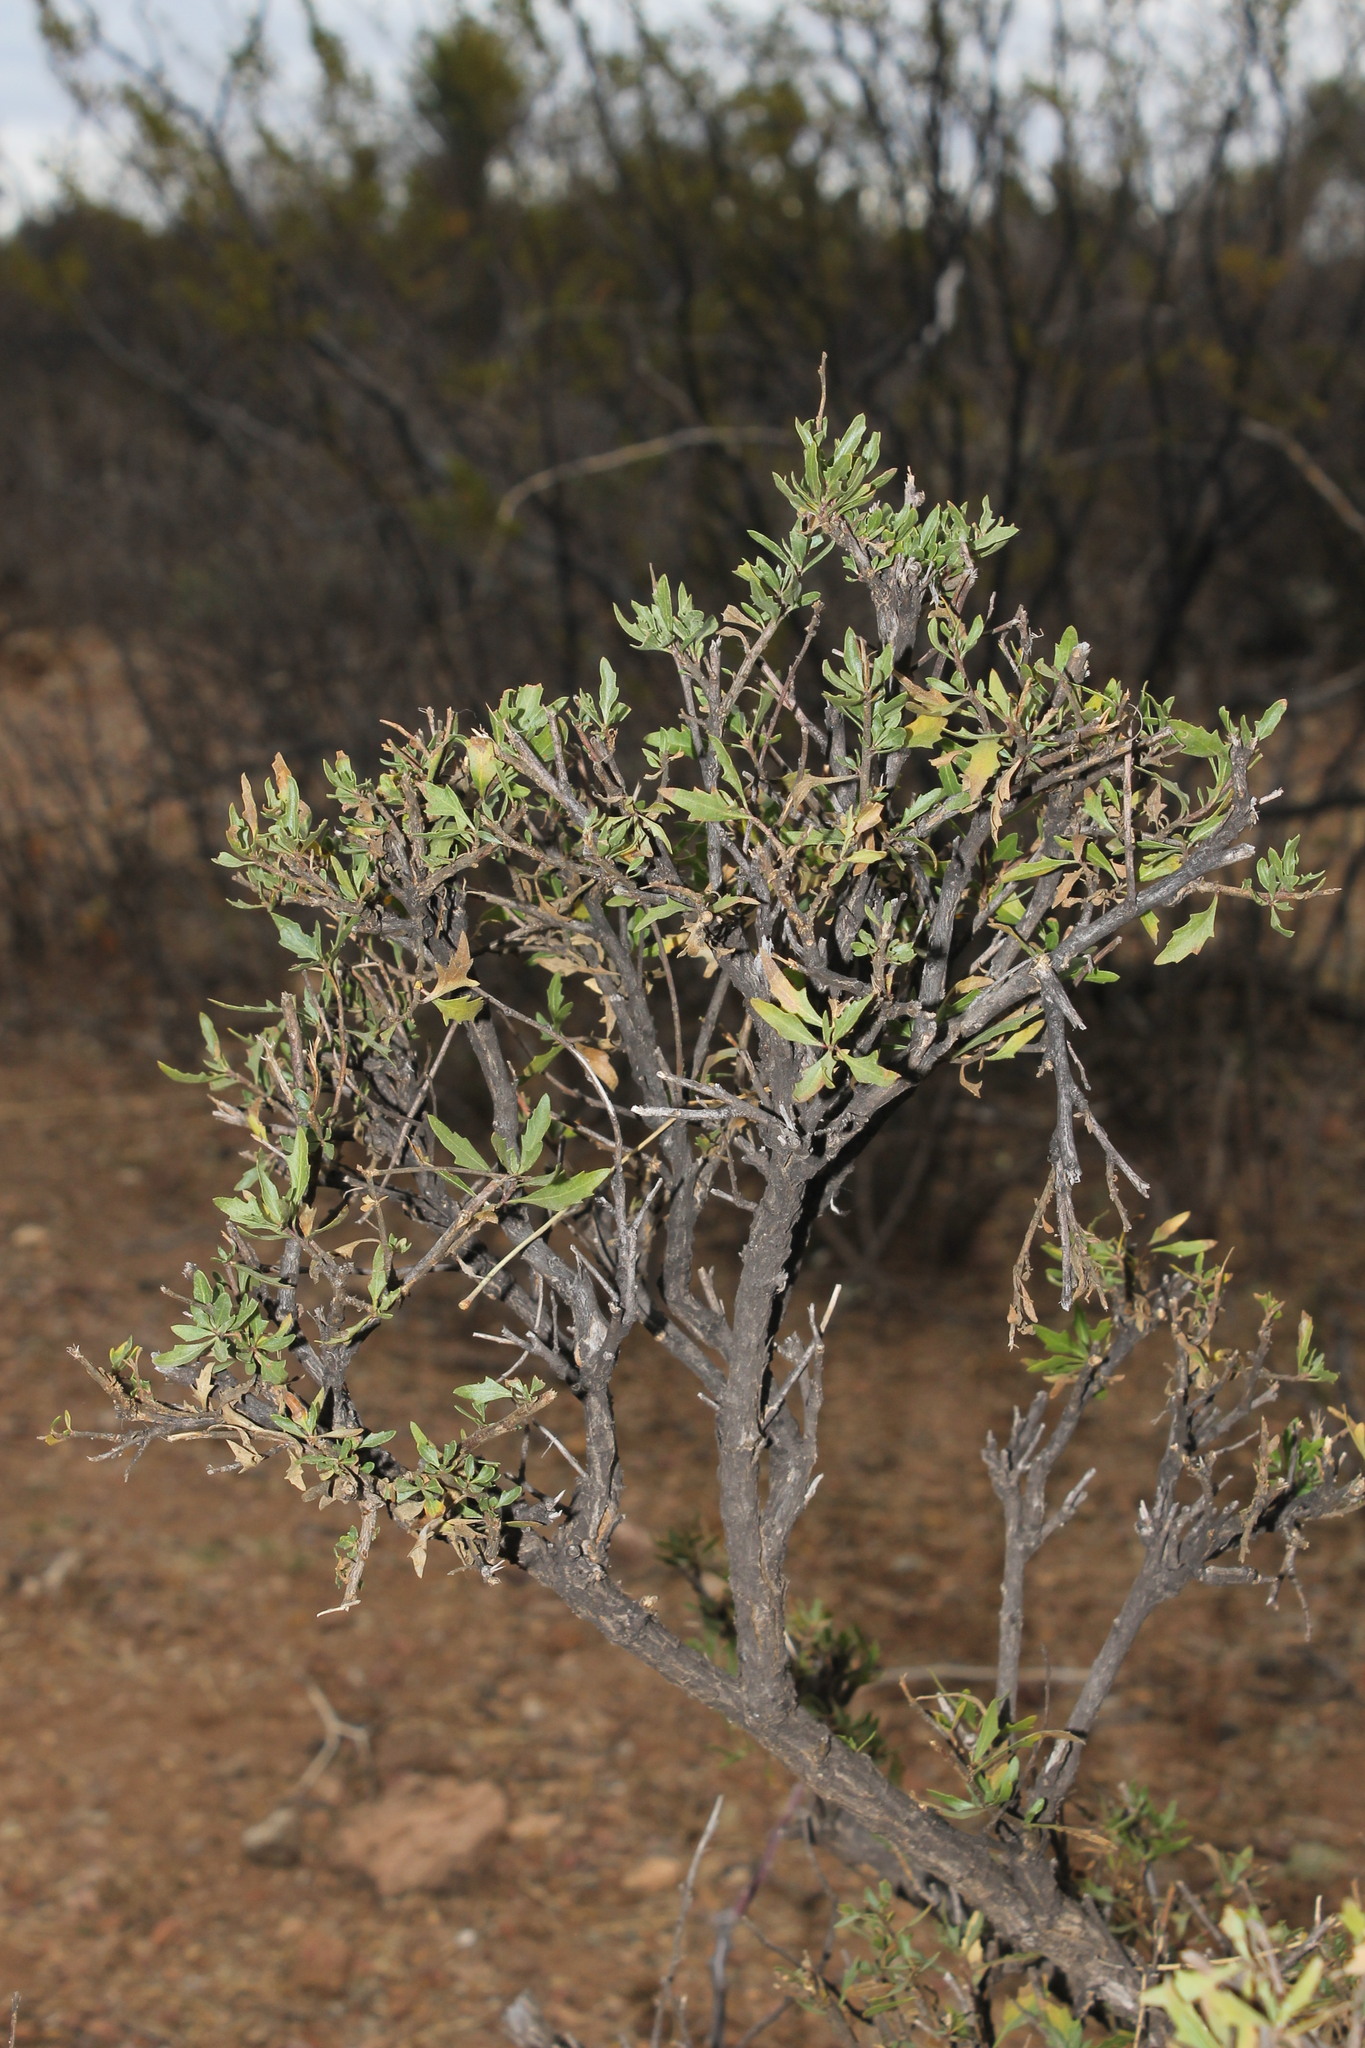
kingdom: Plantae
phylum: Tracheophyta
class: Magnoliopsida
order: Asterales
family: Asteraceae
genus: Flourensia
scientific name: Flourensia dentata
